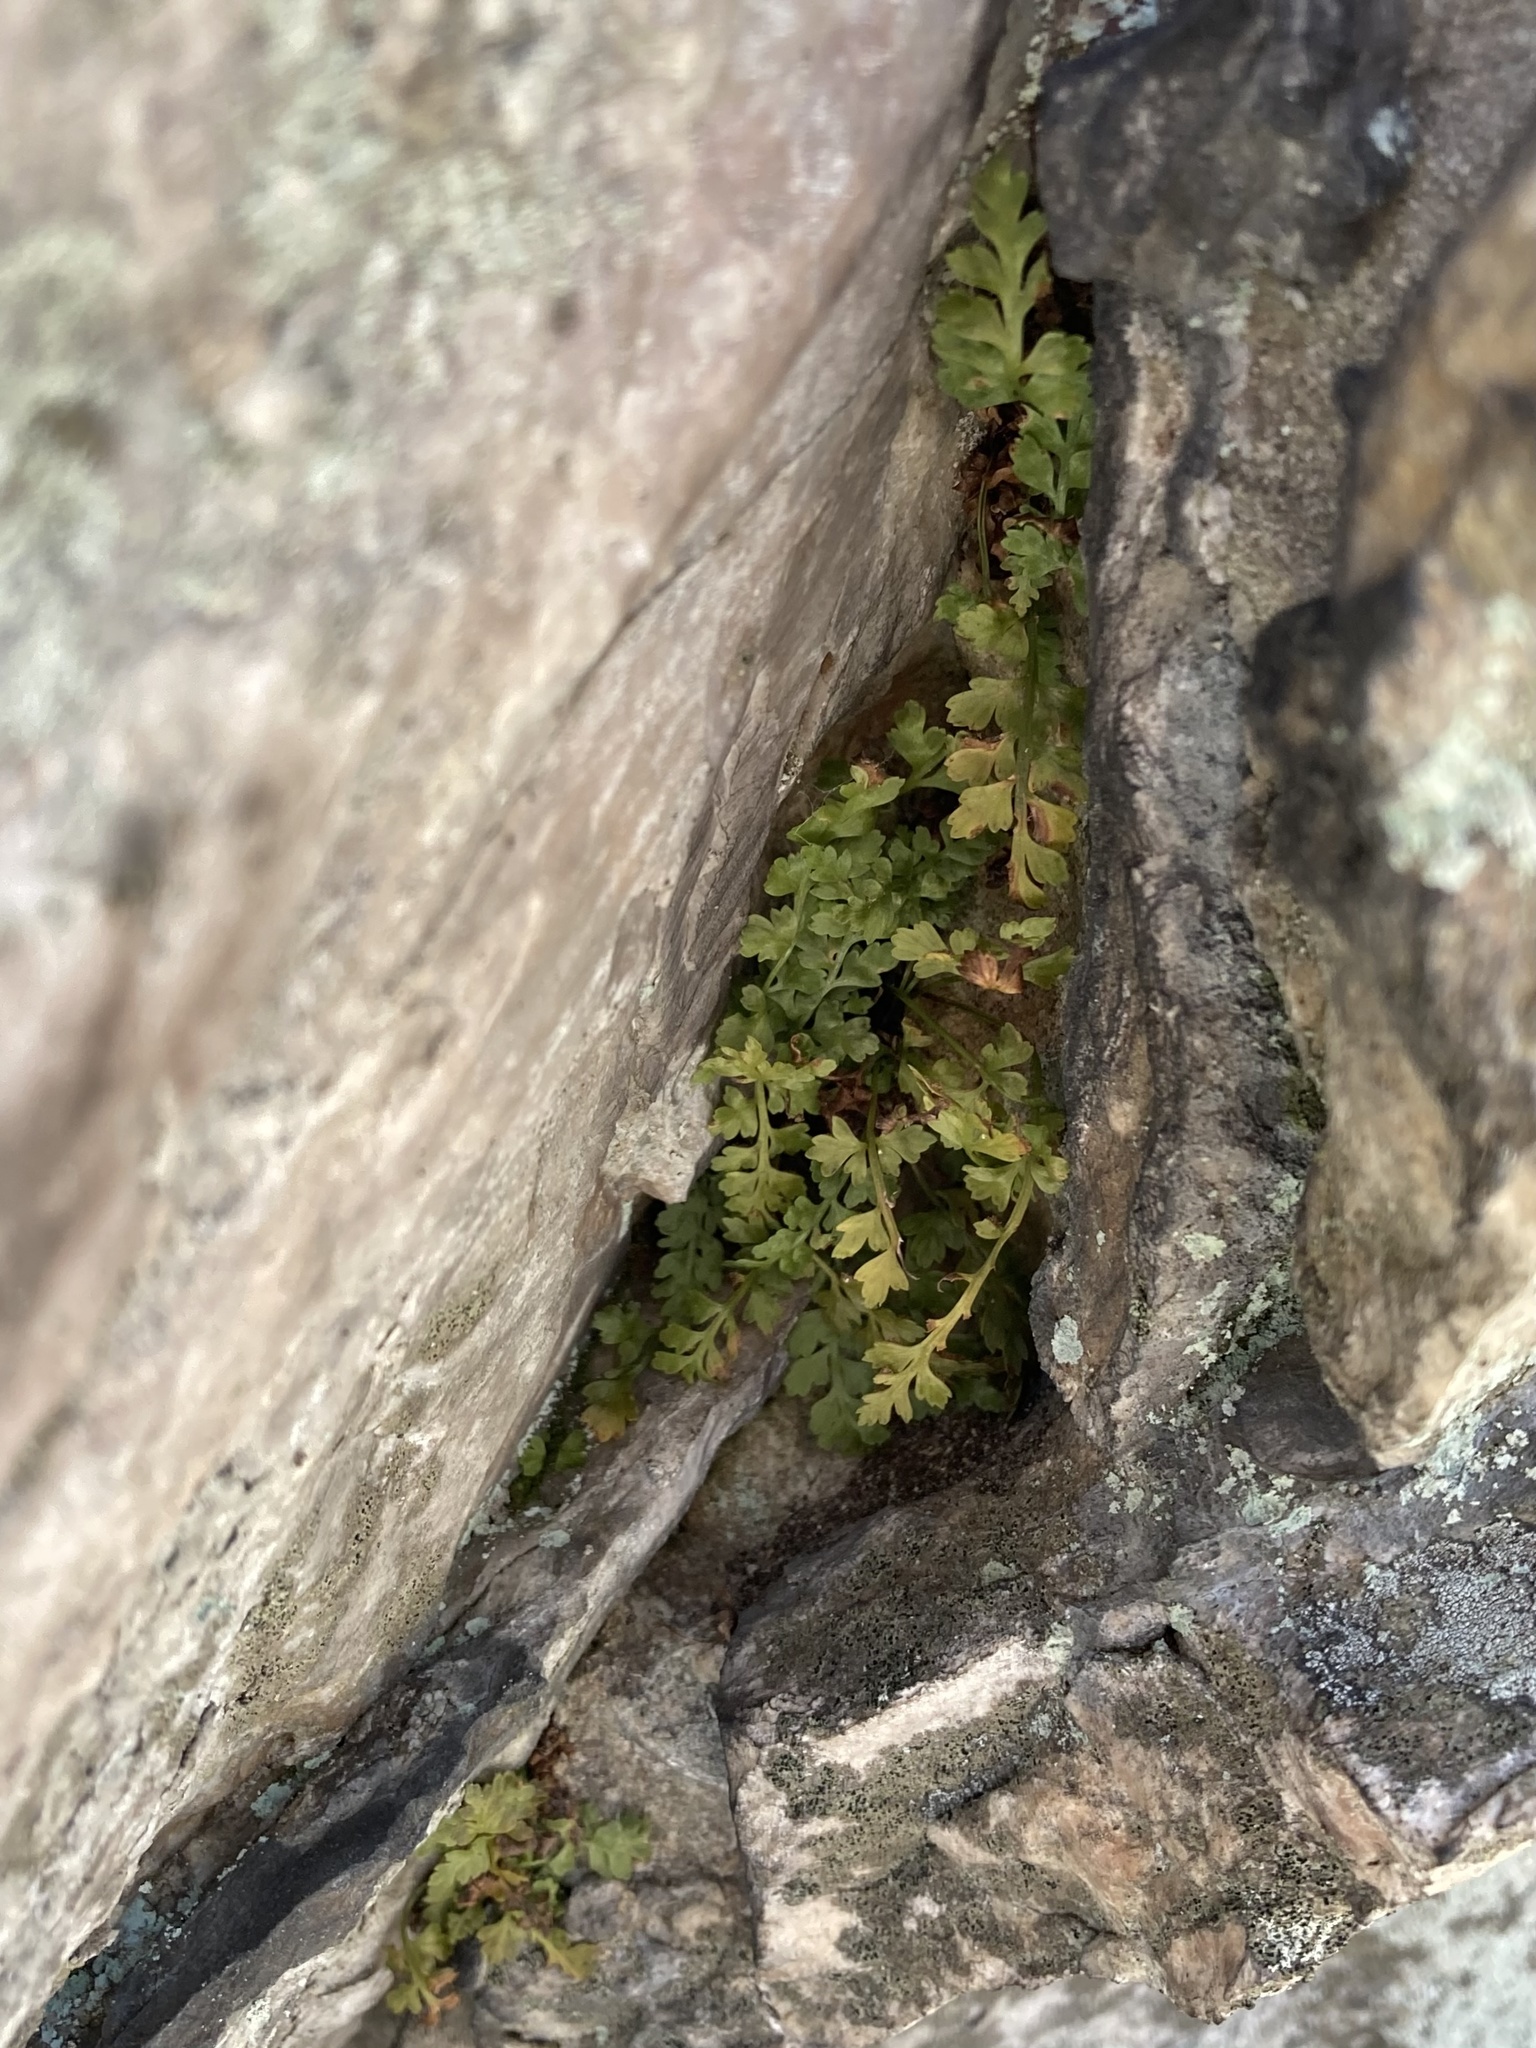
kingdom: Plantae
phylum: Tracheophyta
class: Polypodiopsida
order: Polypodiales
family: Aspleniaceae
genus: Asplenium
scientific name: Asplenium montanum
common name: Mountain spleenwort
